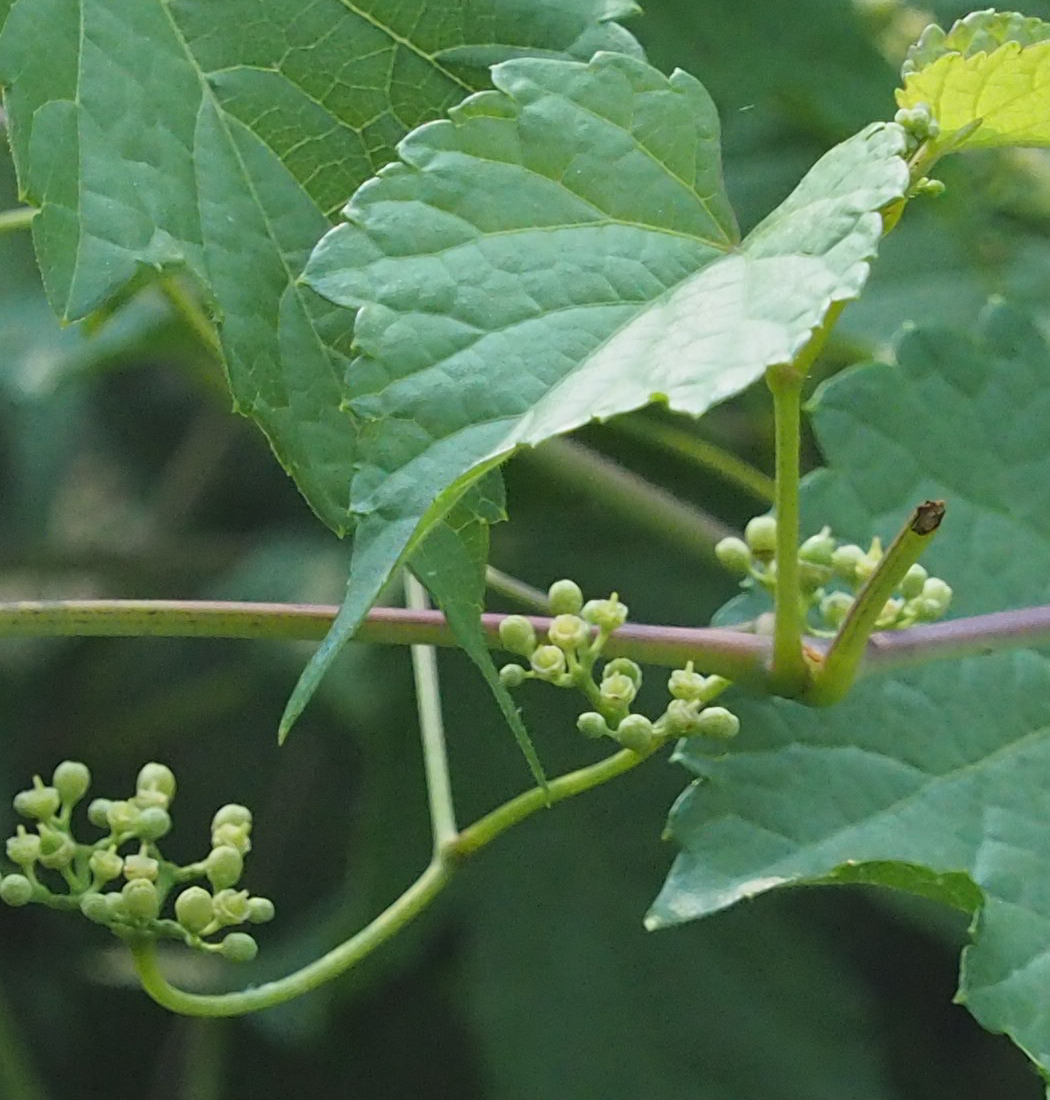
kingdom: Plantae
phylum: Tracheophyta
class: Magnoliopsida
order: Vitales
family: Vitaceae
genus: Ampelopsis
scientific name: Ampelopsis glandulosa
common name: Amur peppervine
